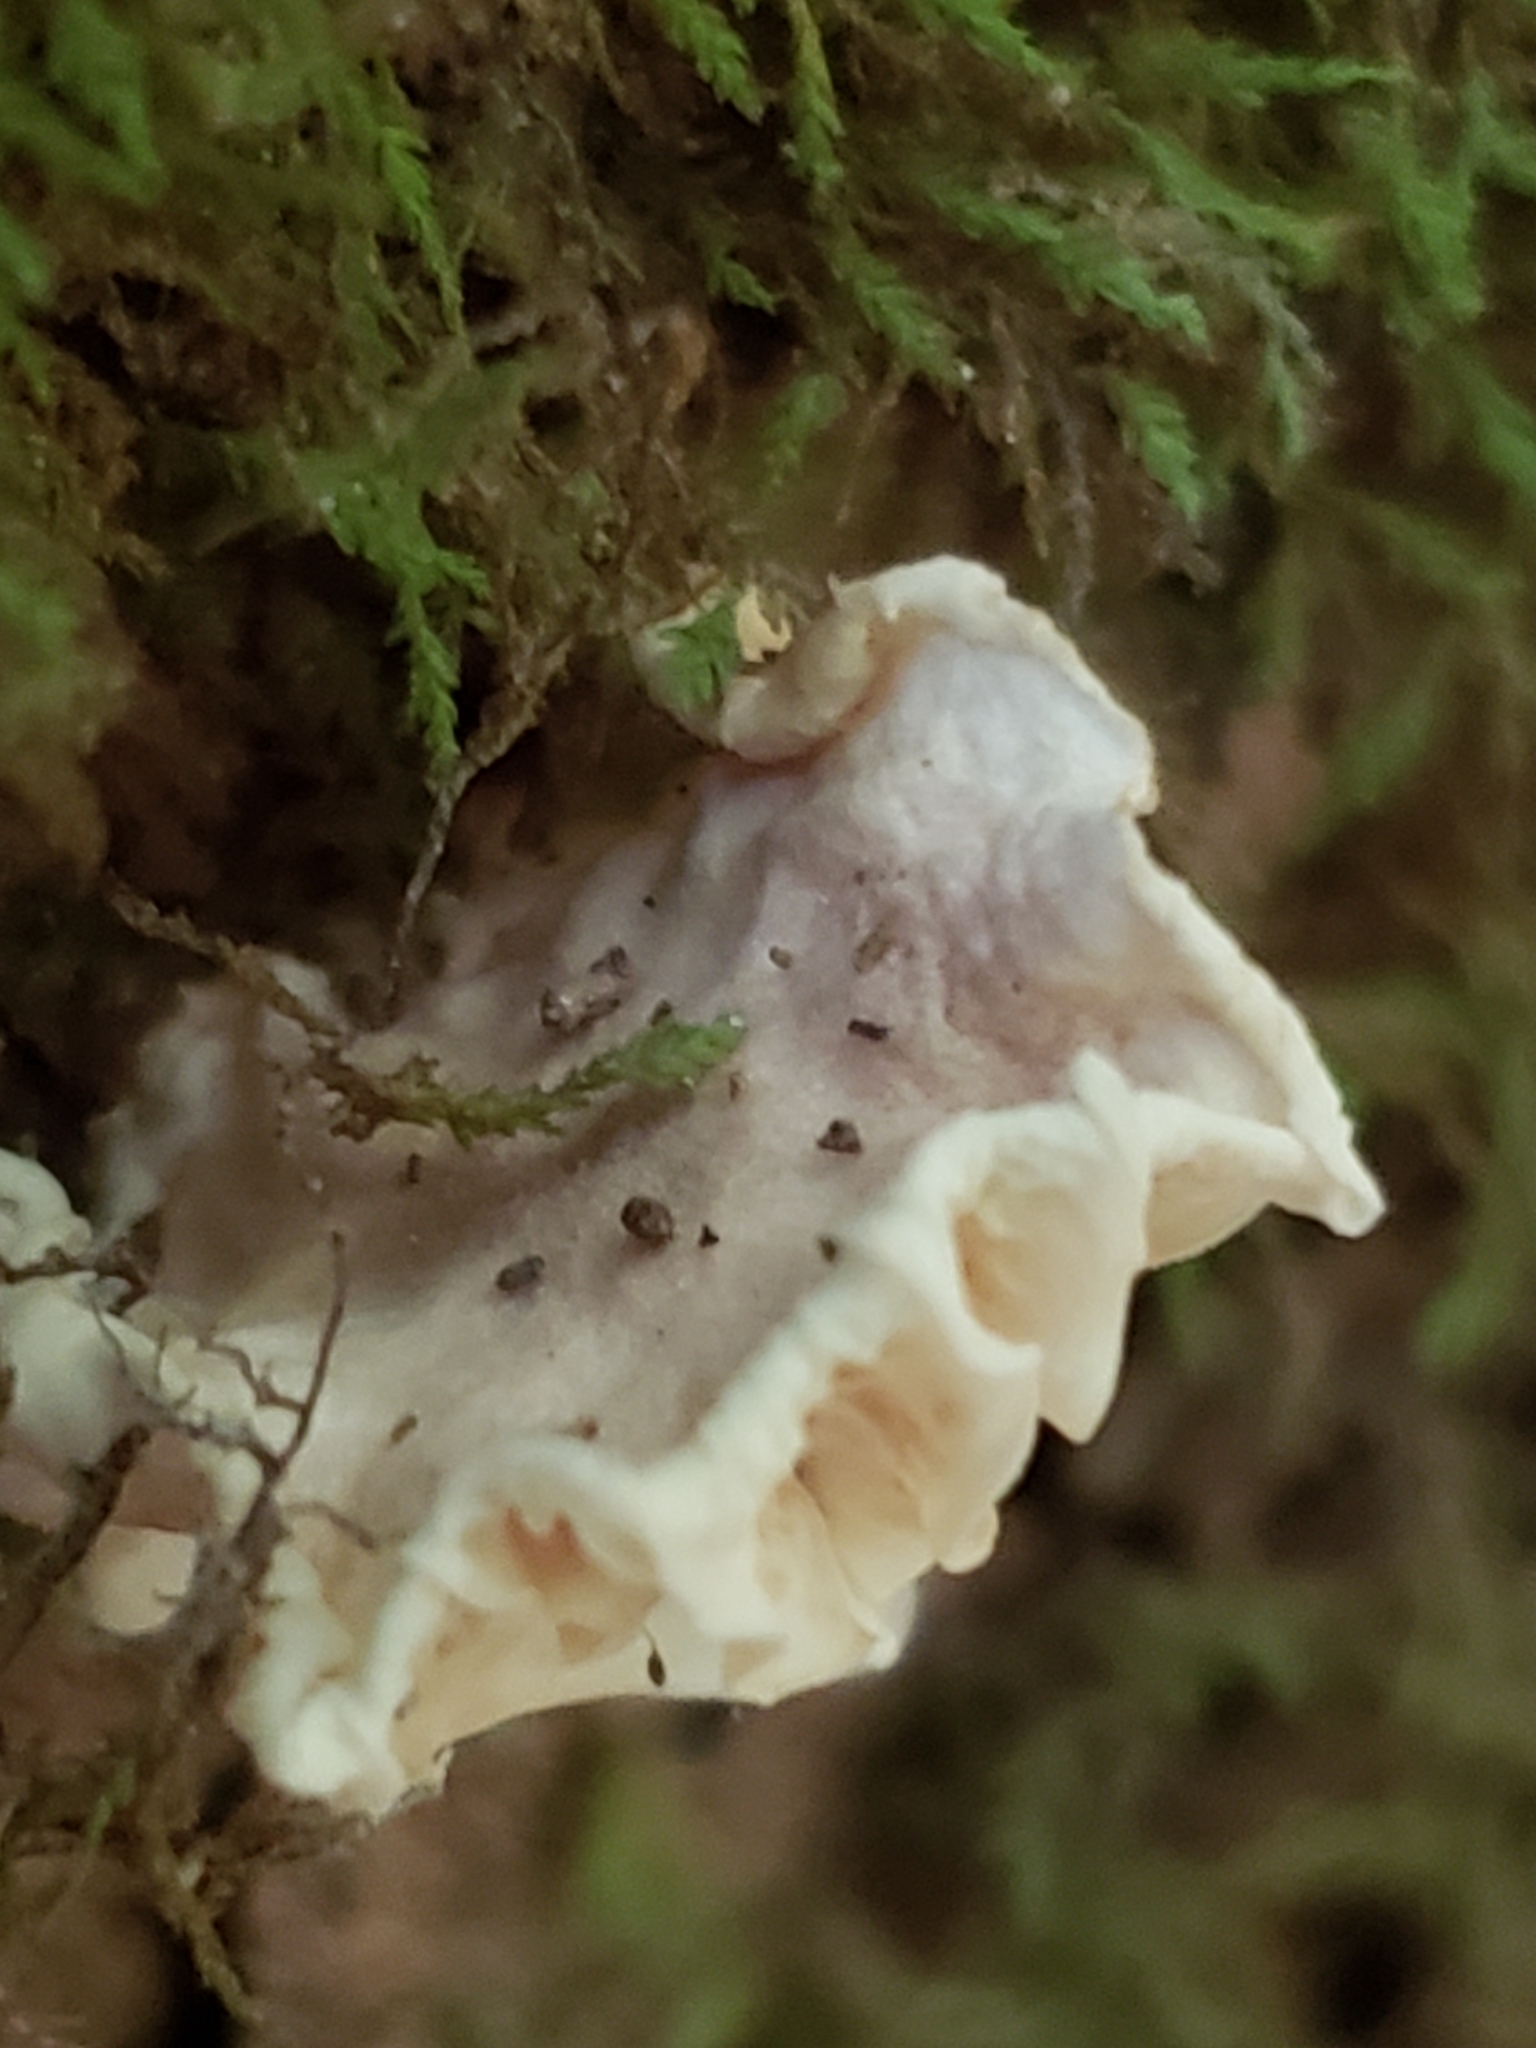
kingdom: Fungi
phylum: Basidiomycota
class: Agaricomycetes
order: Agaricales
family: Omphalotaceae
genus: Marasmiellus
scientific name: Marasmiellus candidus
